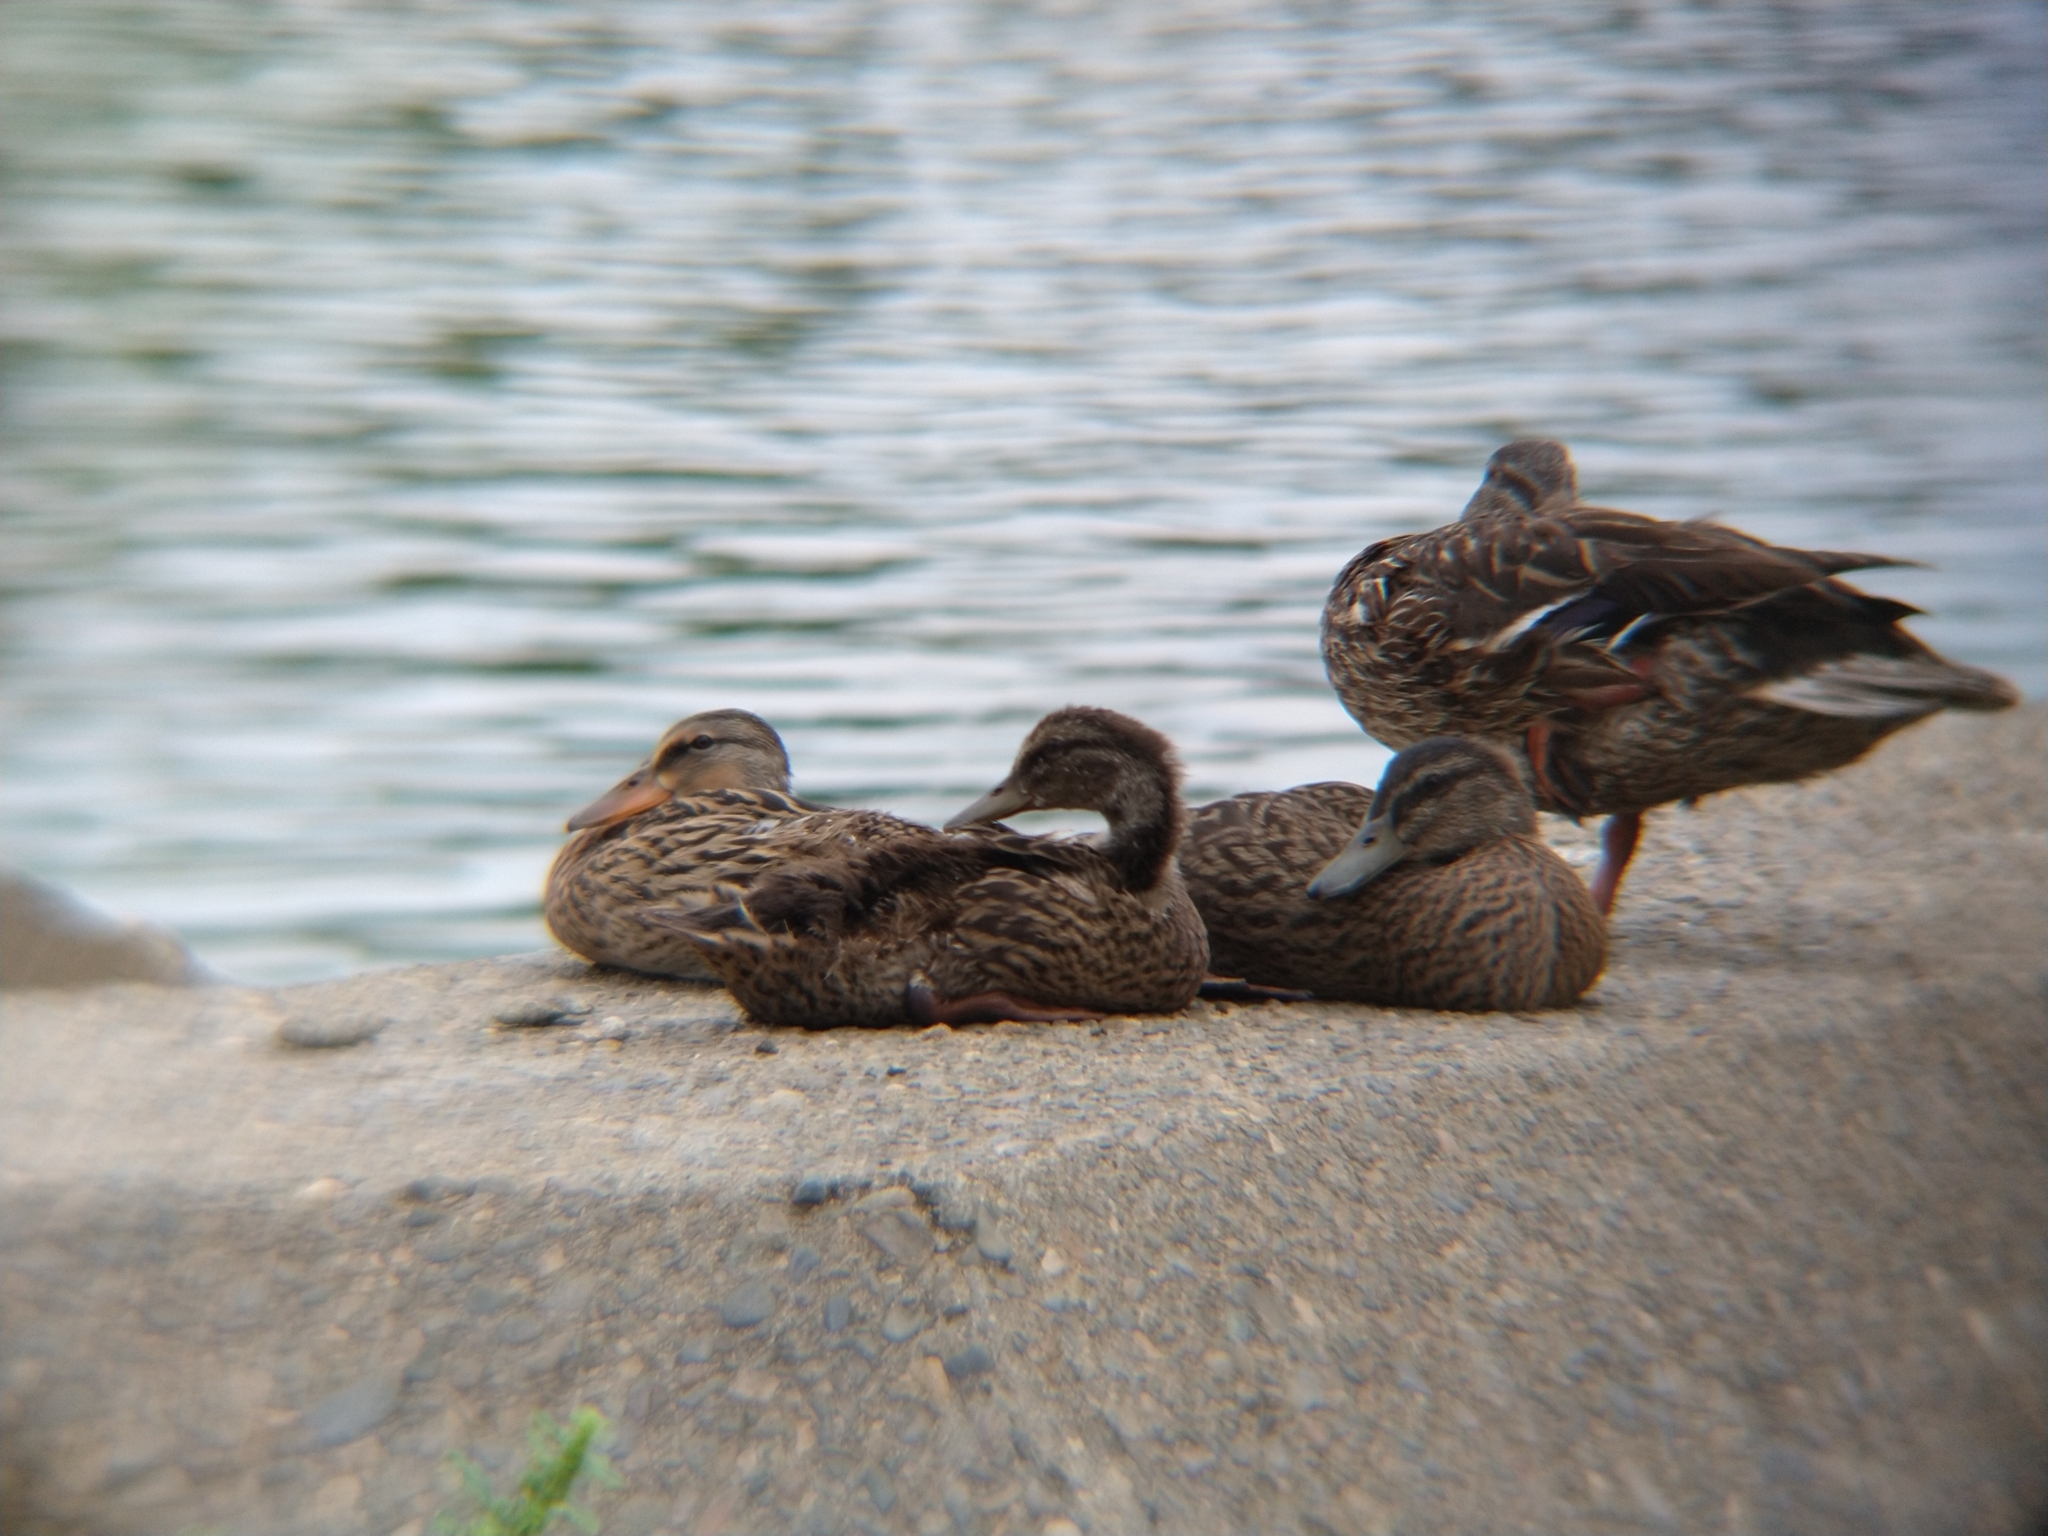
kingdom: Animalia
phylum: Chordata
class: Aves
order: Anseriformes
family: Anatidae
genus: Anas
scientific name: Anas platyrhynchos
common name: Mallard
